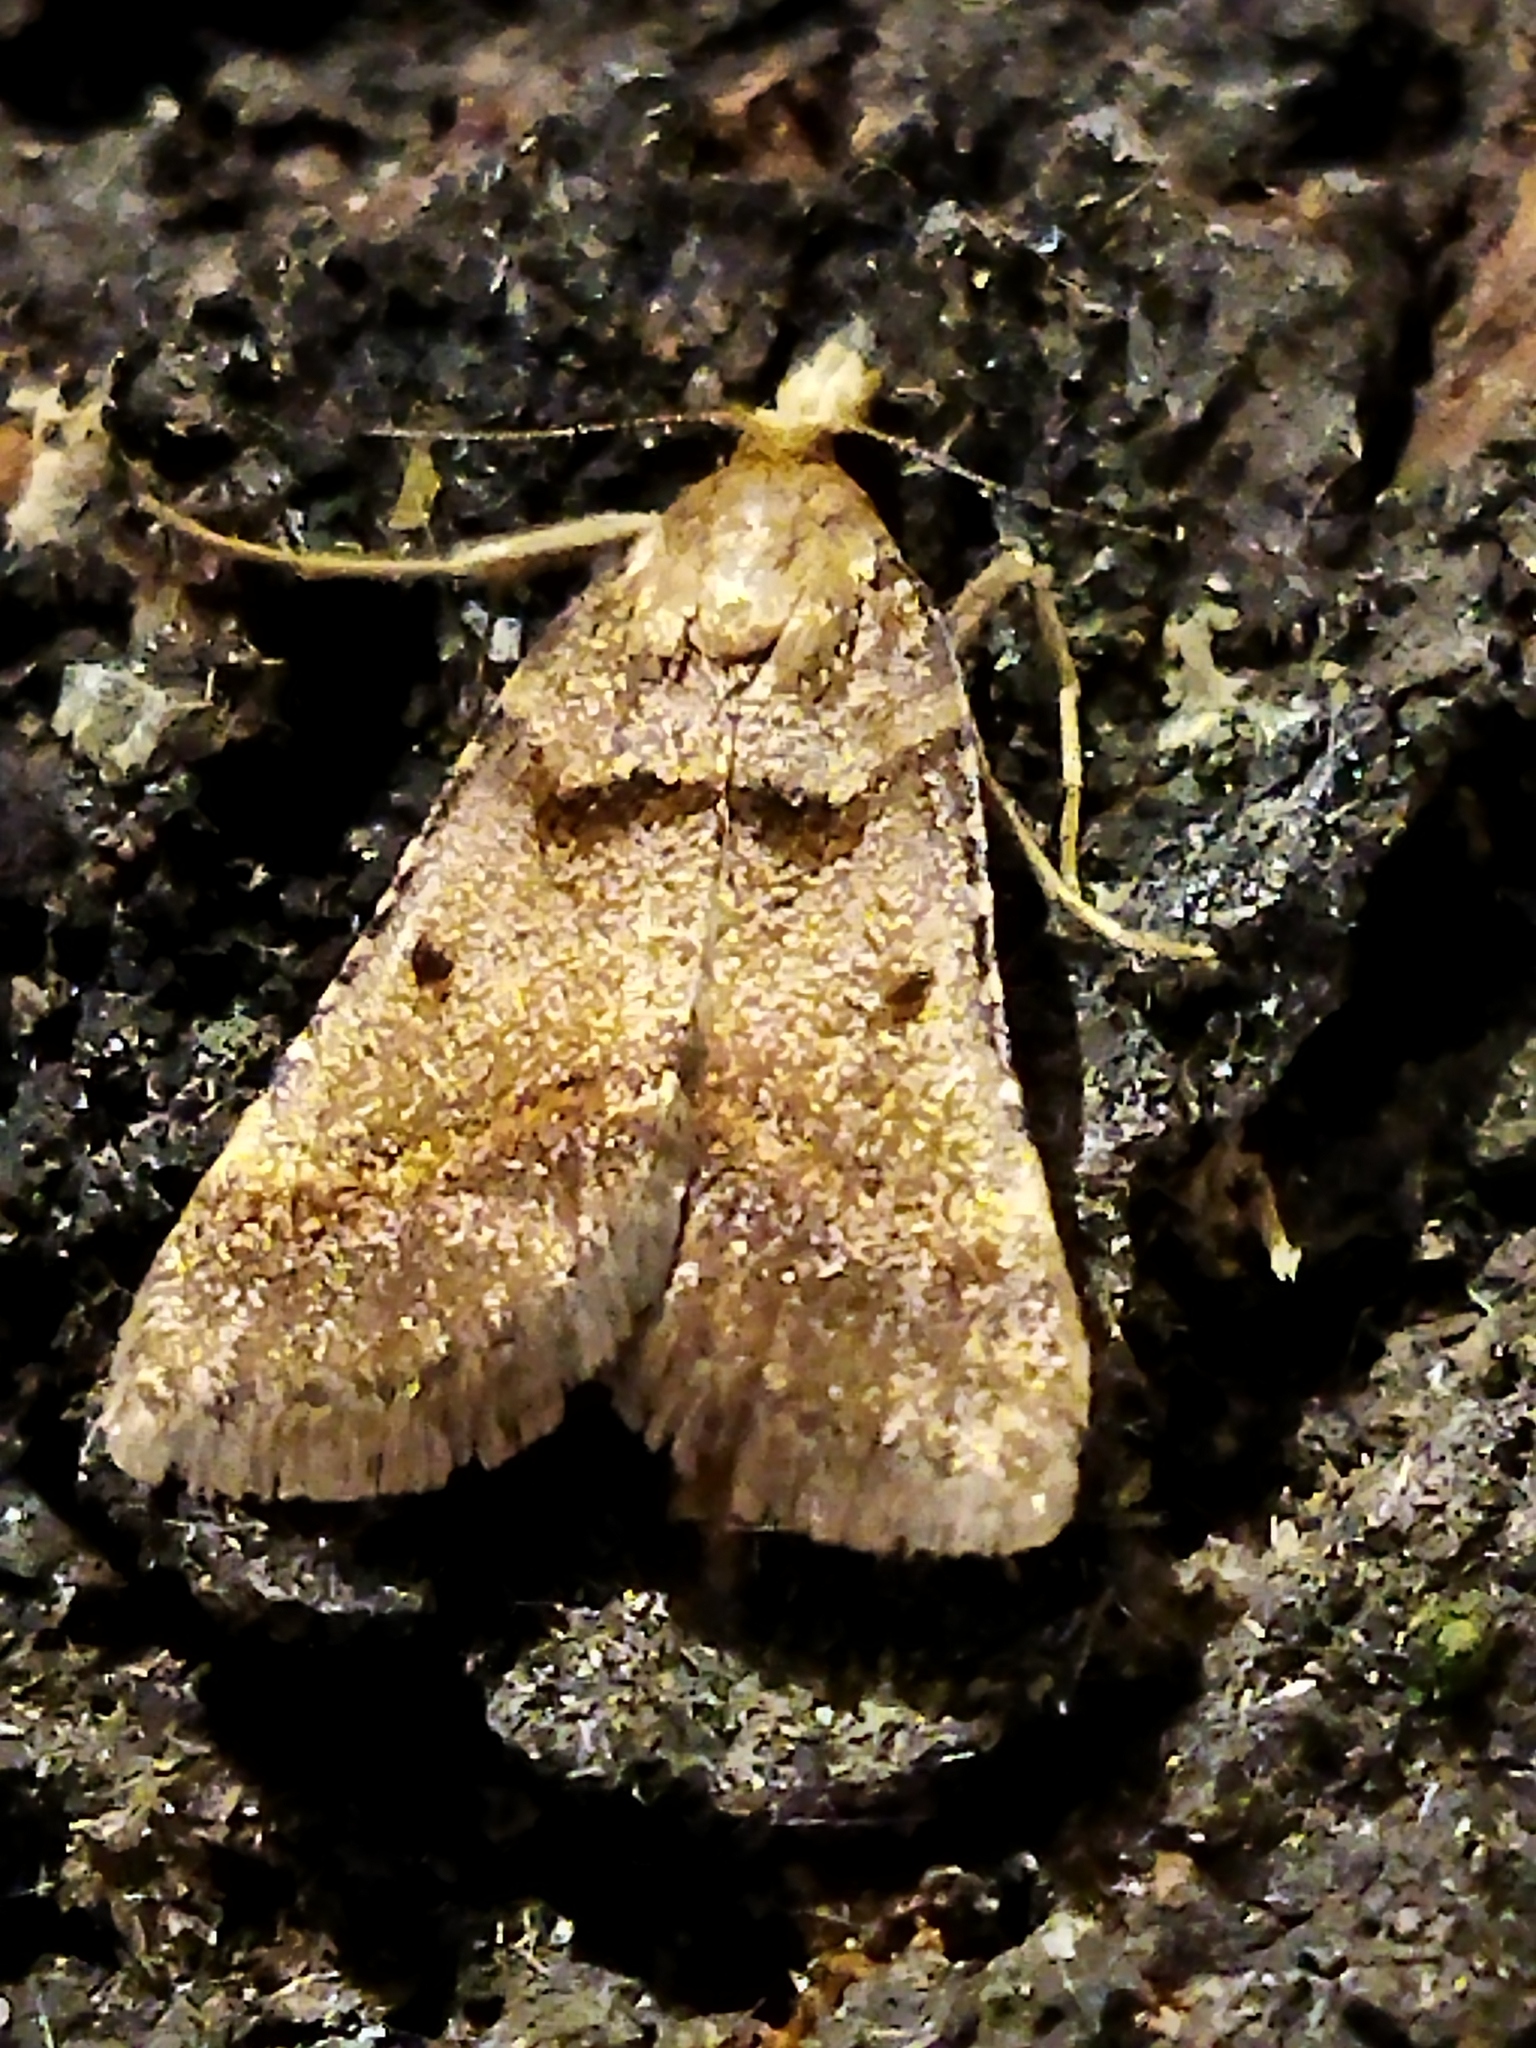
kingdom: Animalia
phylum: Arthropoda
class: Insecta
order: Lepidoptera
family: Pyralidae
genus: Stemmatophora
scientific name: Stemmatophora brunnealis
